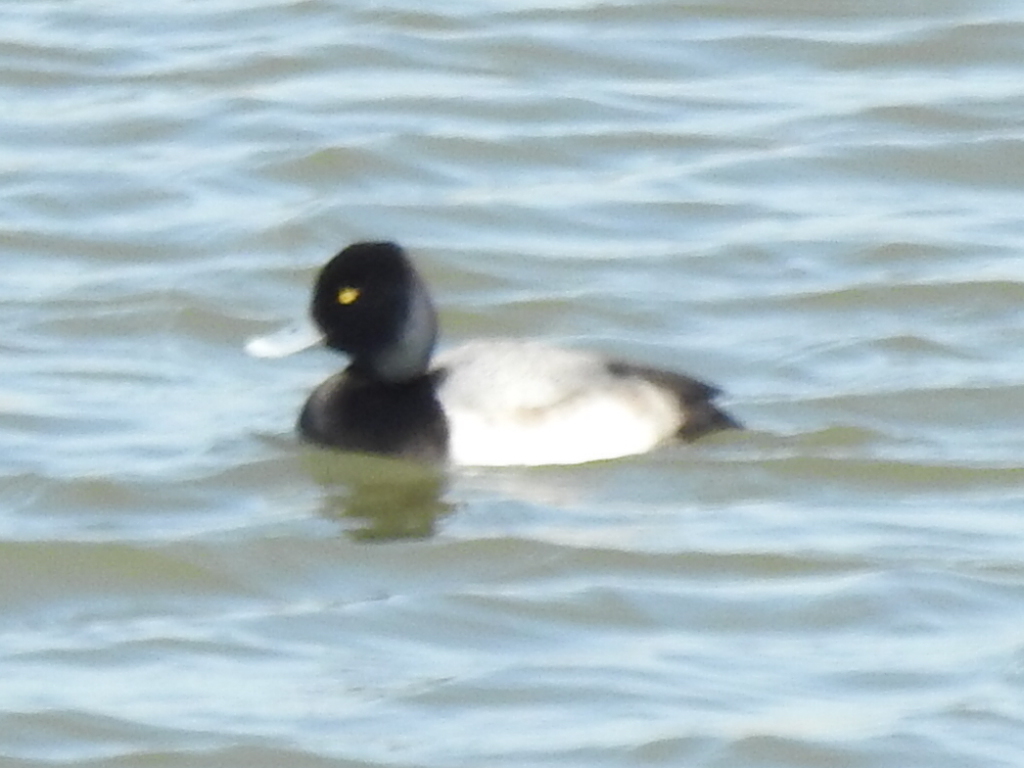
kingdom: Animalia
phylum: Chordata
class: Aves
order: Anseriformes
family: Anatidae
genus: Aythya
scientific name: Aythya affinis
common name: Lesser scaup
